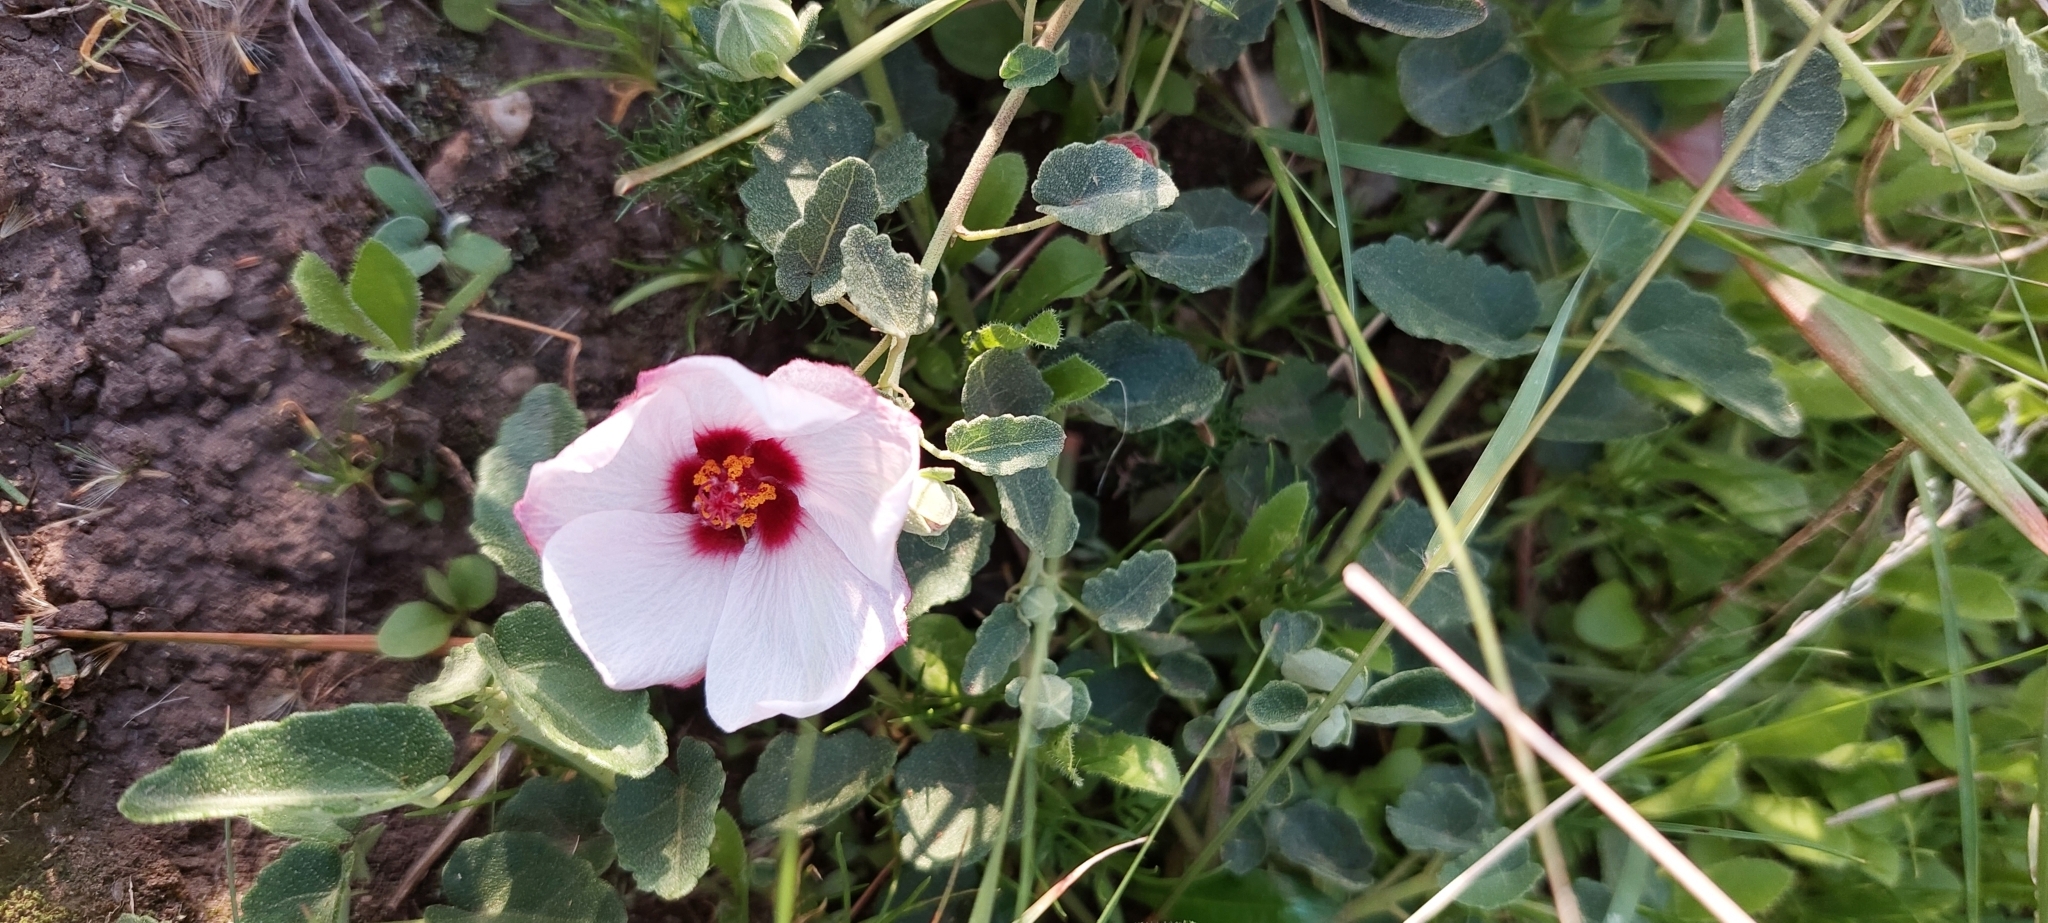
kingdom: Plantae
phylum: Tracheophyta
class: Magnoliopsida
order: Malvales
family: Malvaceae
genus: Pavonia
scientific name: Pavonia cymbalaria
